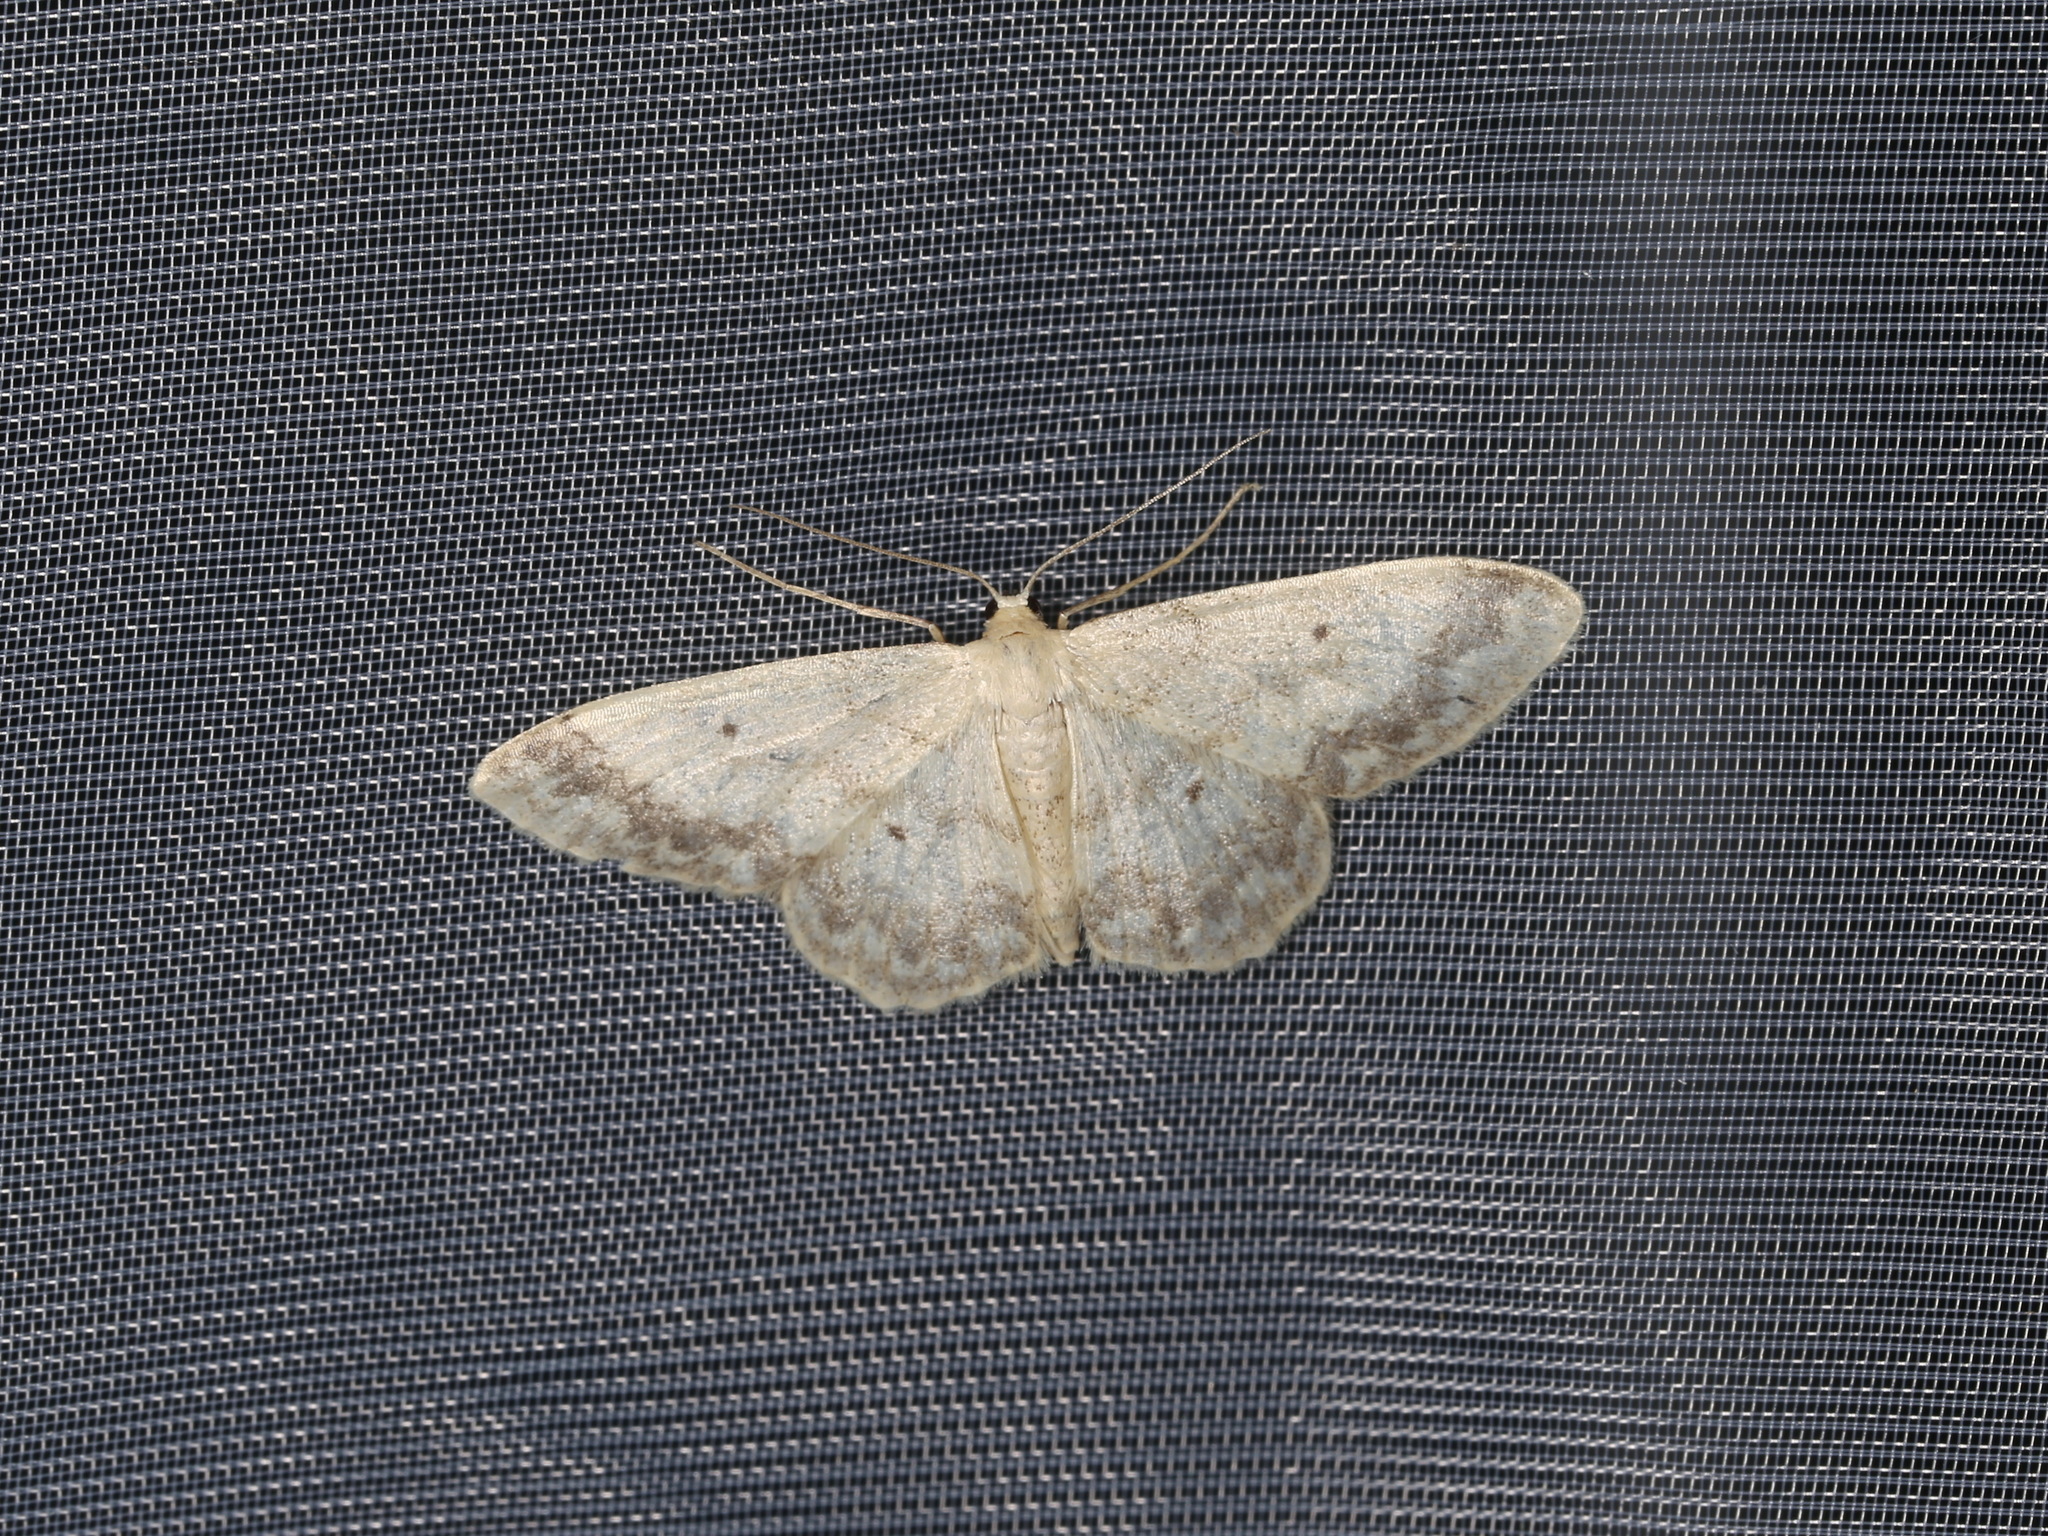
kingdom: Animalia
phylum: Arthropoda
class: Insecta
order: Lepidoptera
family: Geometridae
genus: Idaea
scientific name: Idaea biselata
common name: Small fan-footed wave
